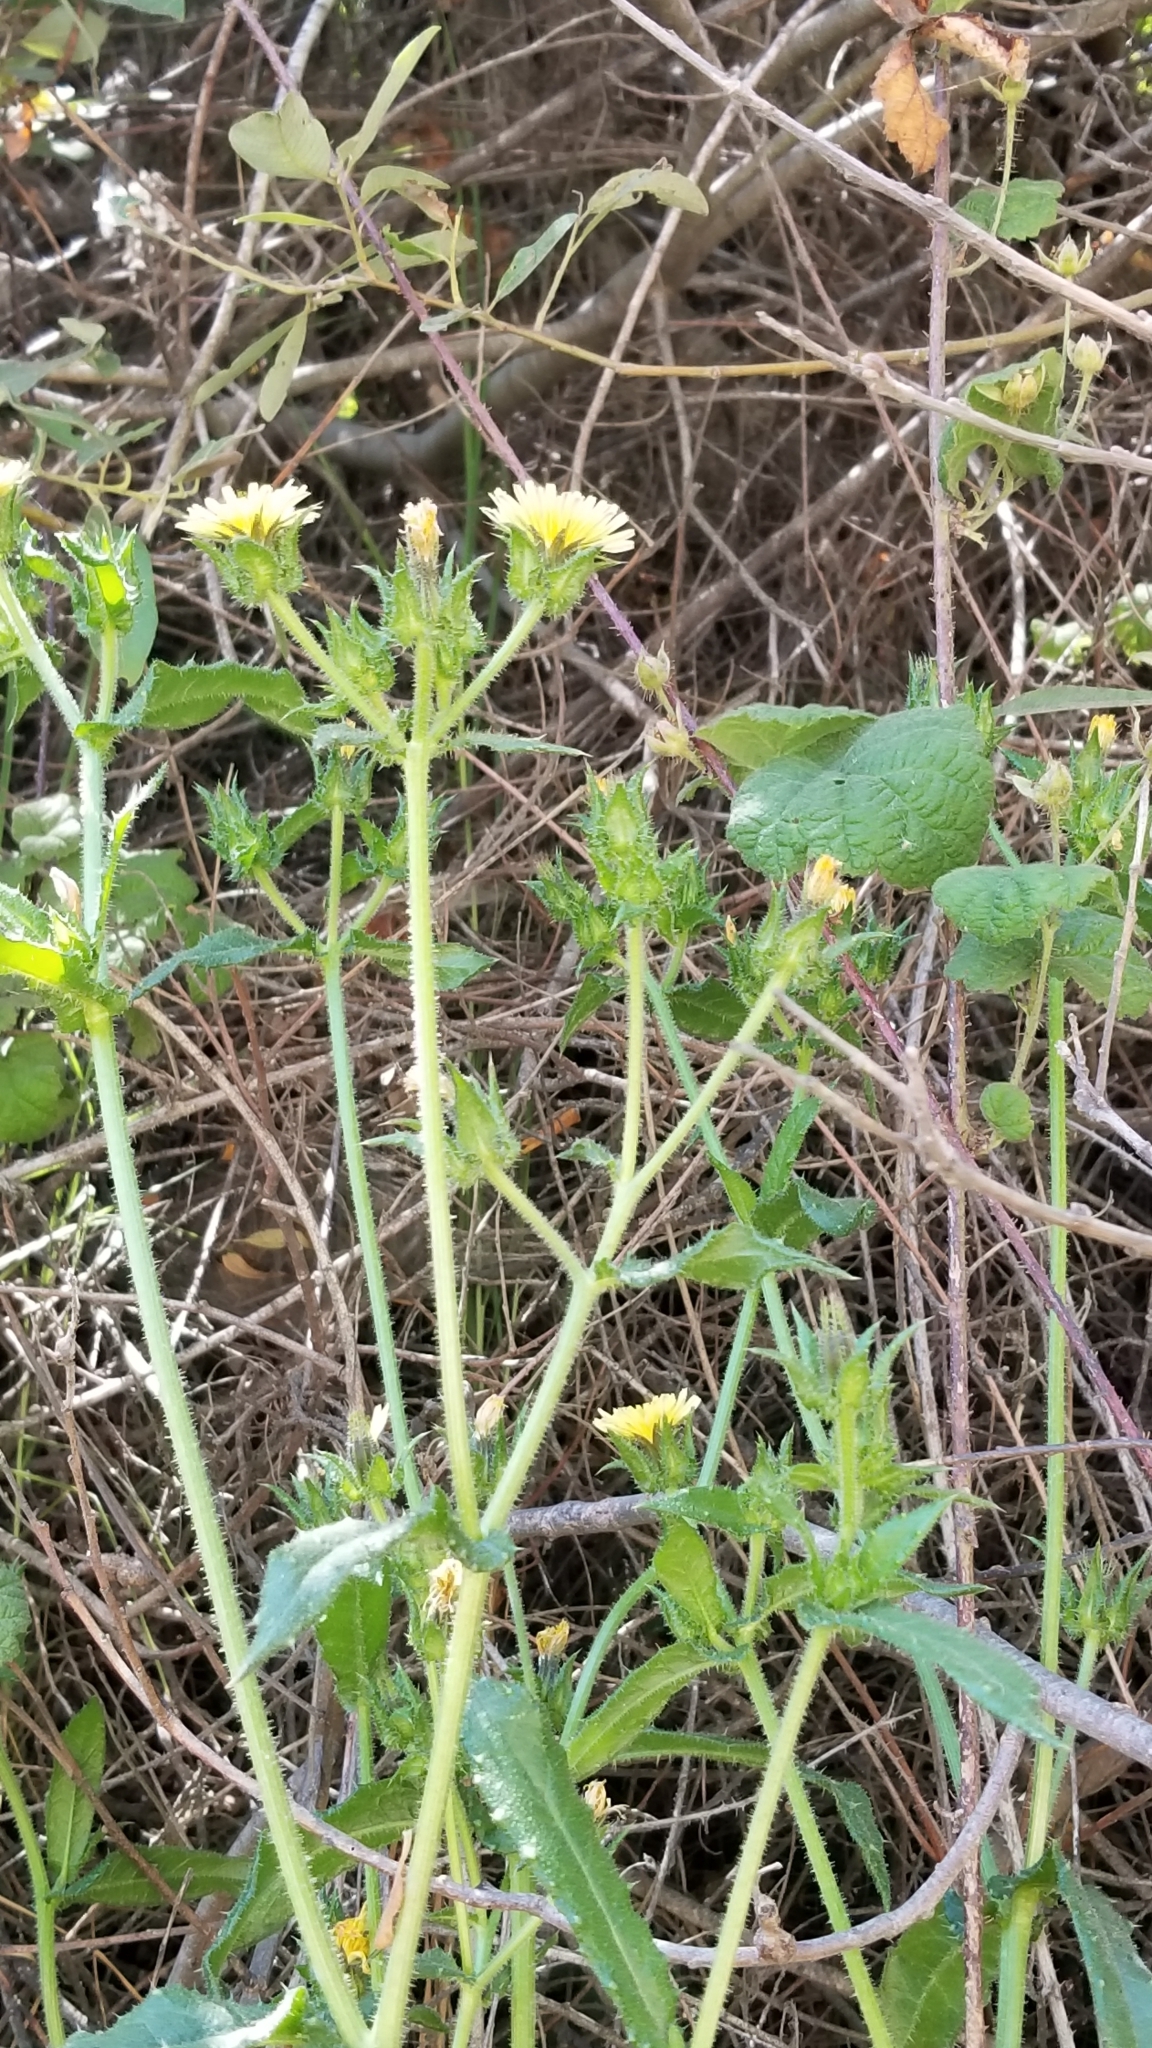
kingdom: Plantae
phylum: Tracheophyta
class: Magnoliopsida
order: Asterales
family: Asteraceae
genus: Helminthotheca
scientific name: Helminthotheca echioides
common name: Ox-tongue
